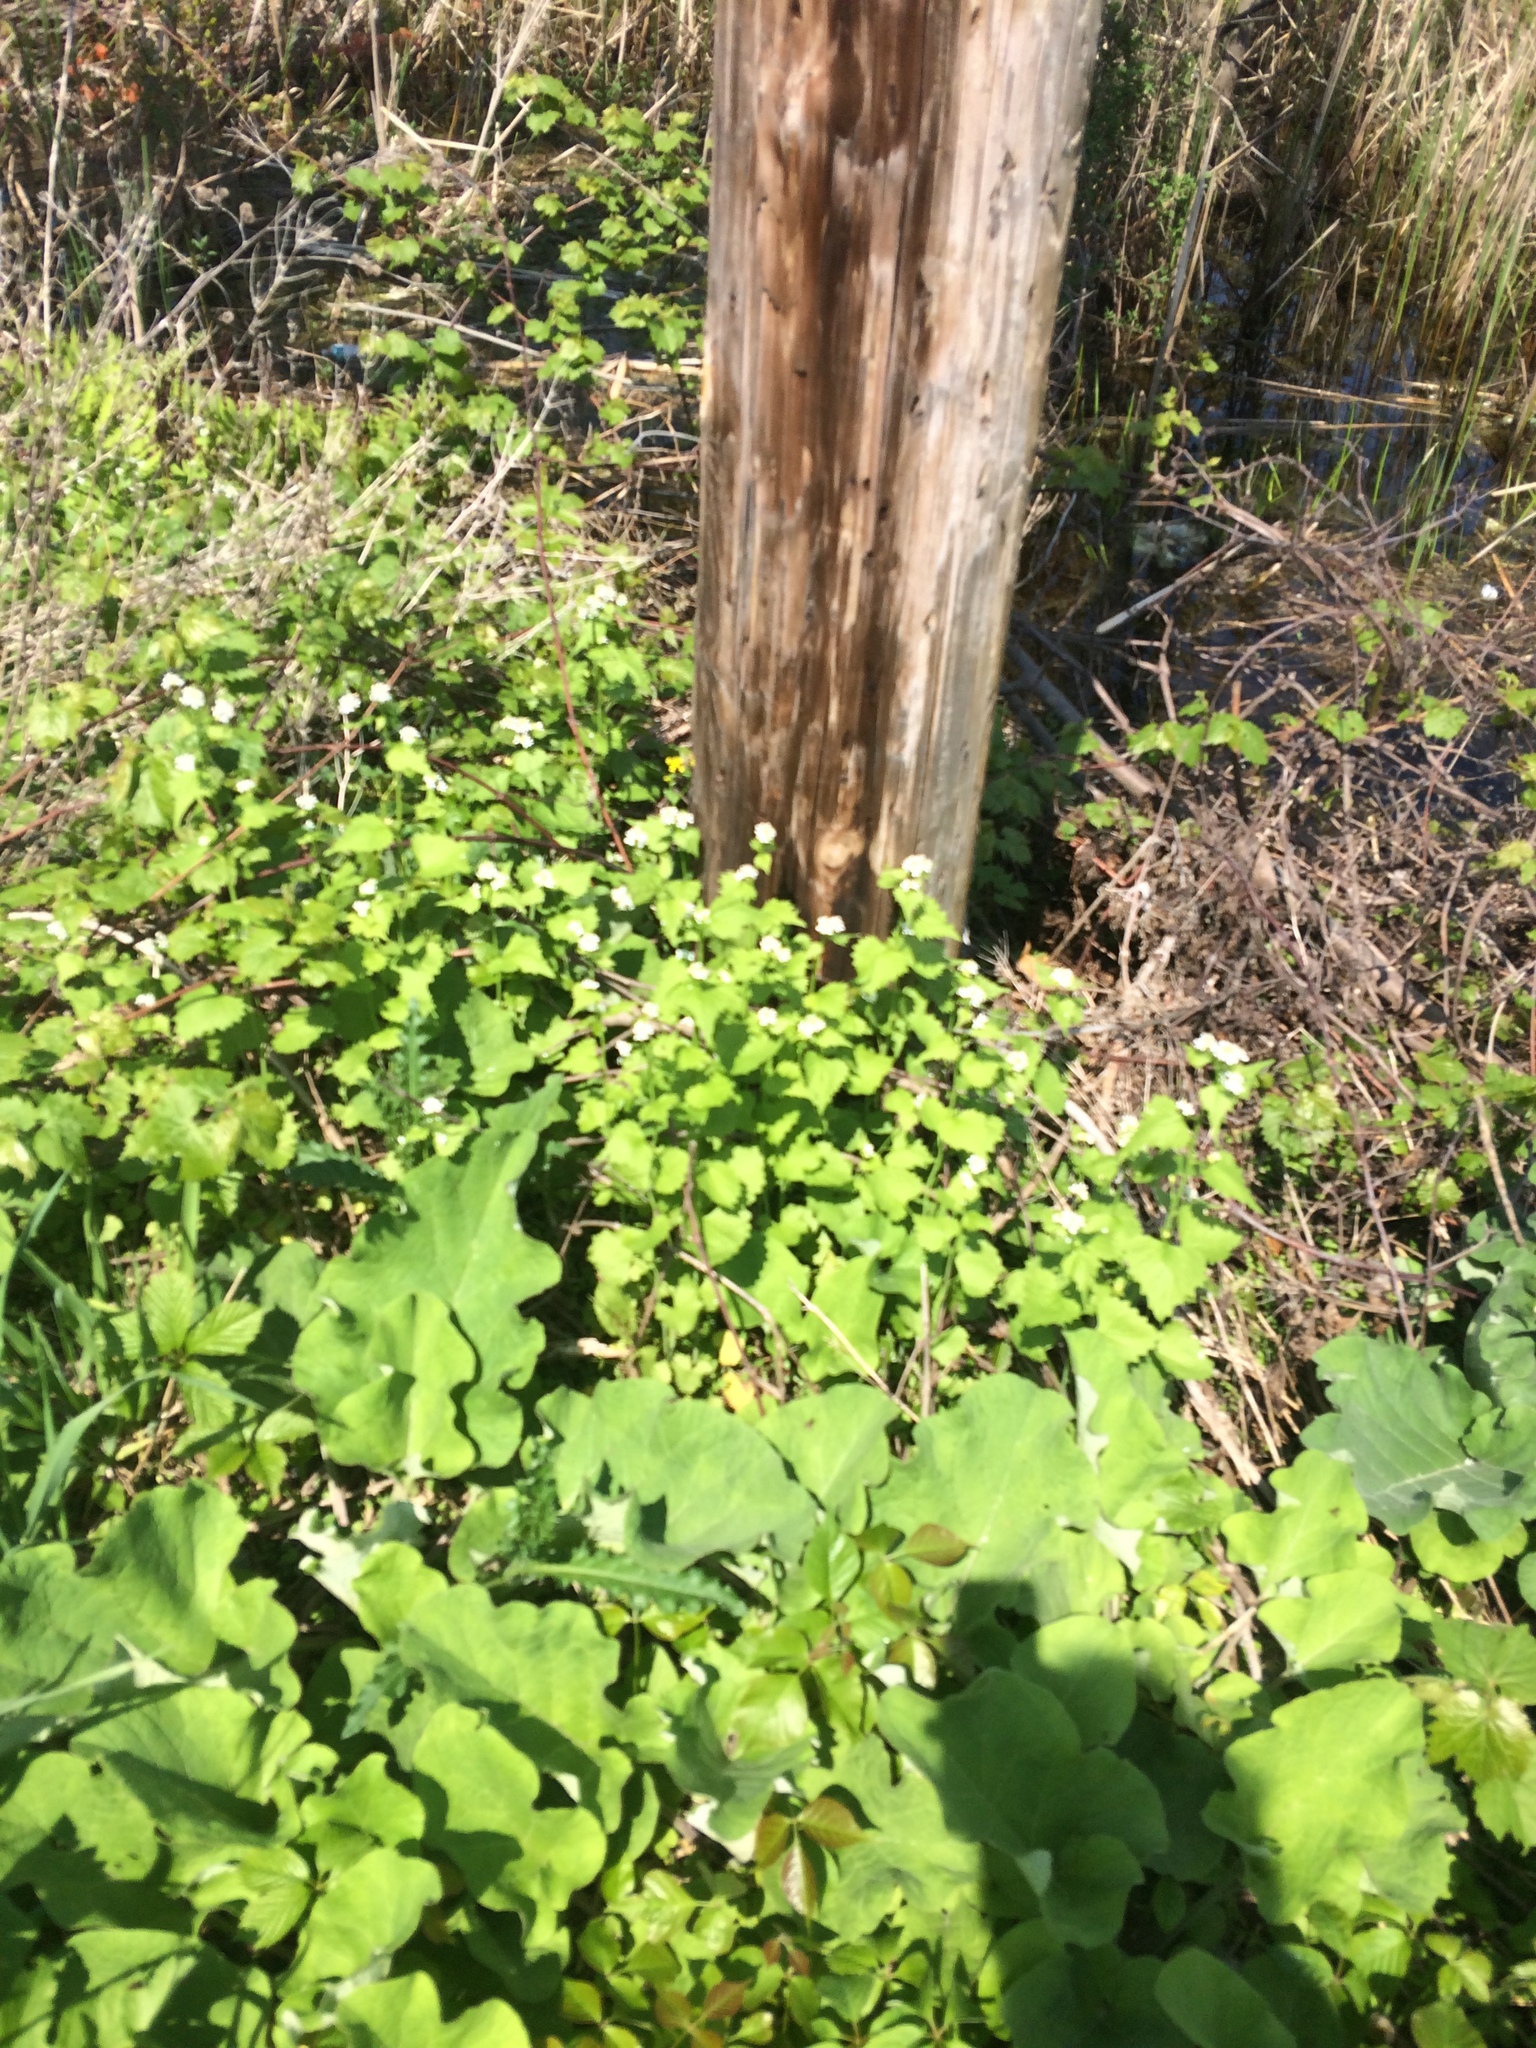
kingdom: Plantae
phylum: Tracheophyta
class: Magnoliopsida
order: Brassicales
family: Brassicaceae
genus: Alliaria
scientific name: Alliaria petiolata
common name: Garlic mustard
